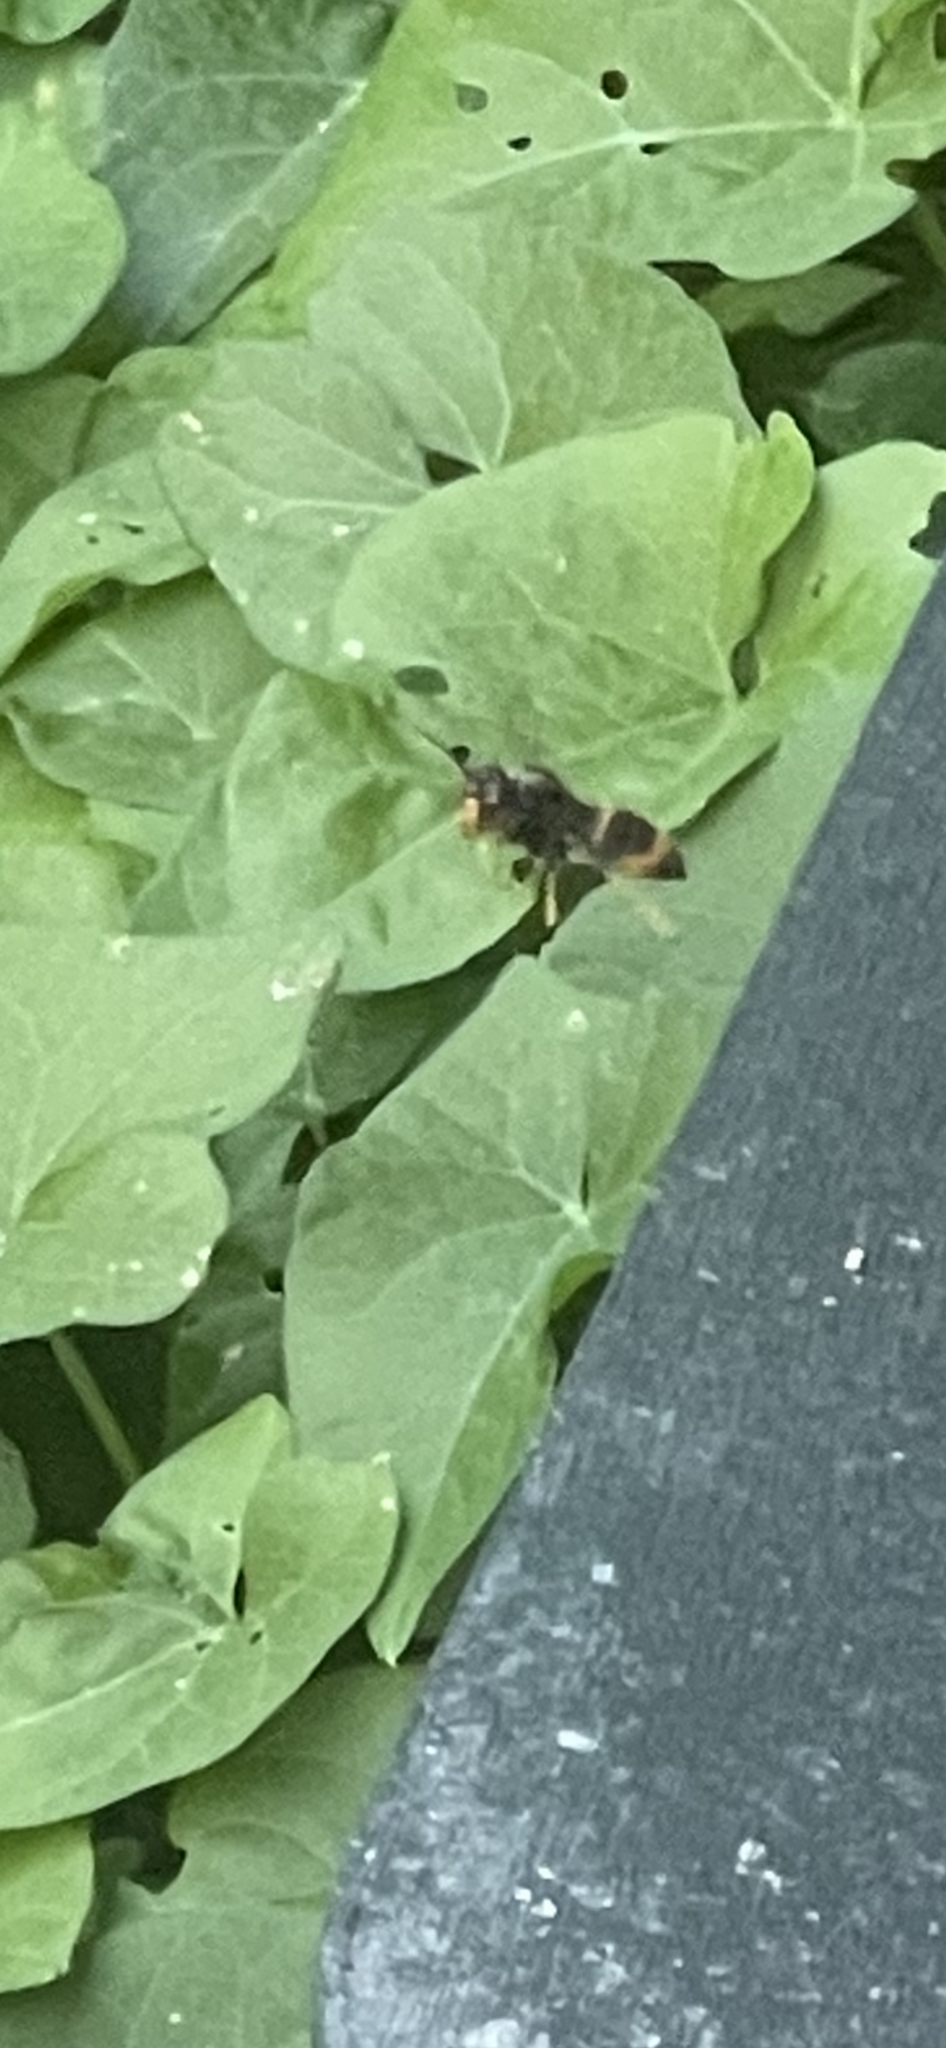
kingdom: Animalia
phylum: Arthropoda
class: Insecta
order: Hymenoptera
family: Vespidae
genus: Vespa
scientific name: Vespa velutina
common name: Asian hornet
